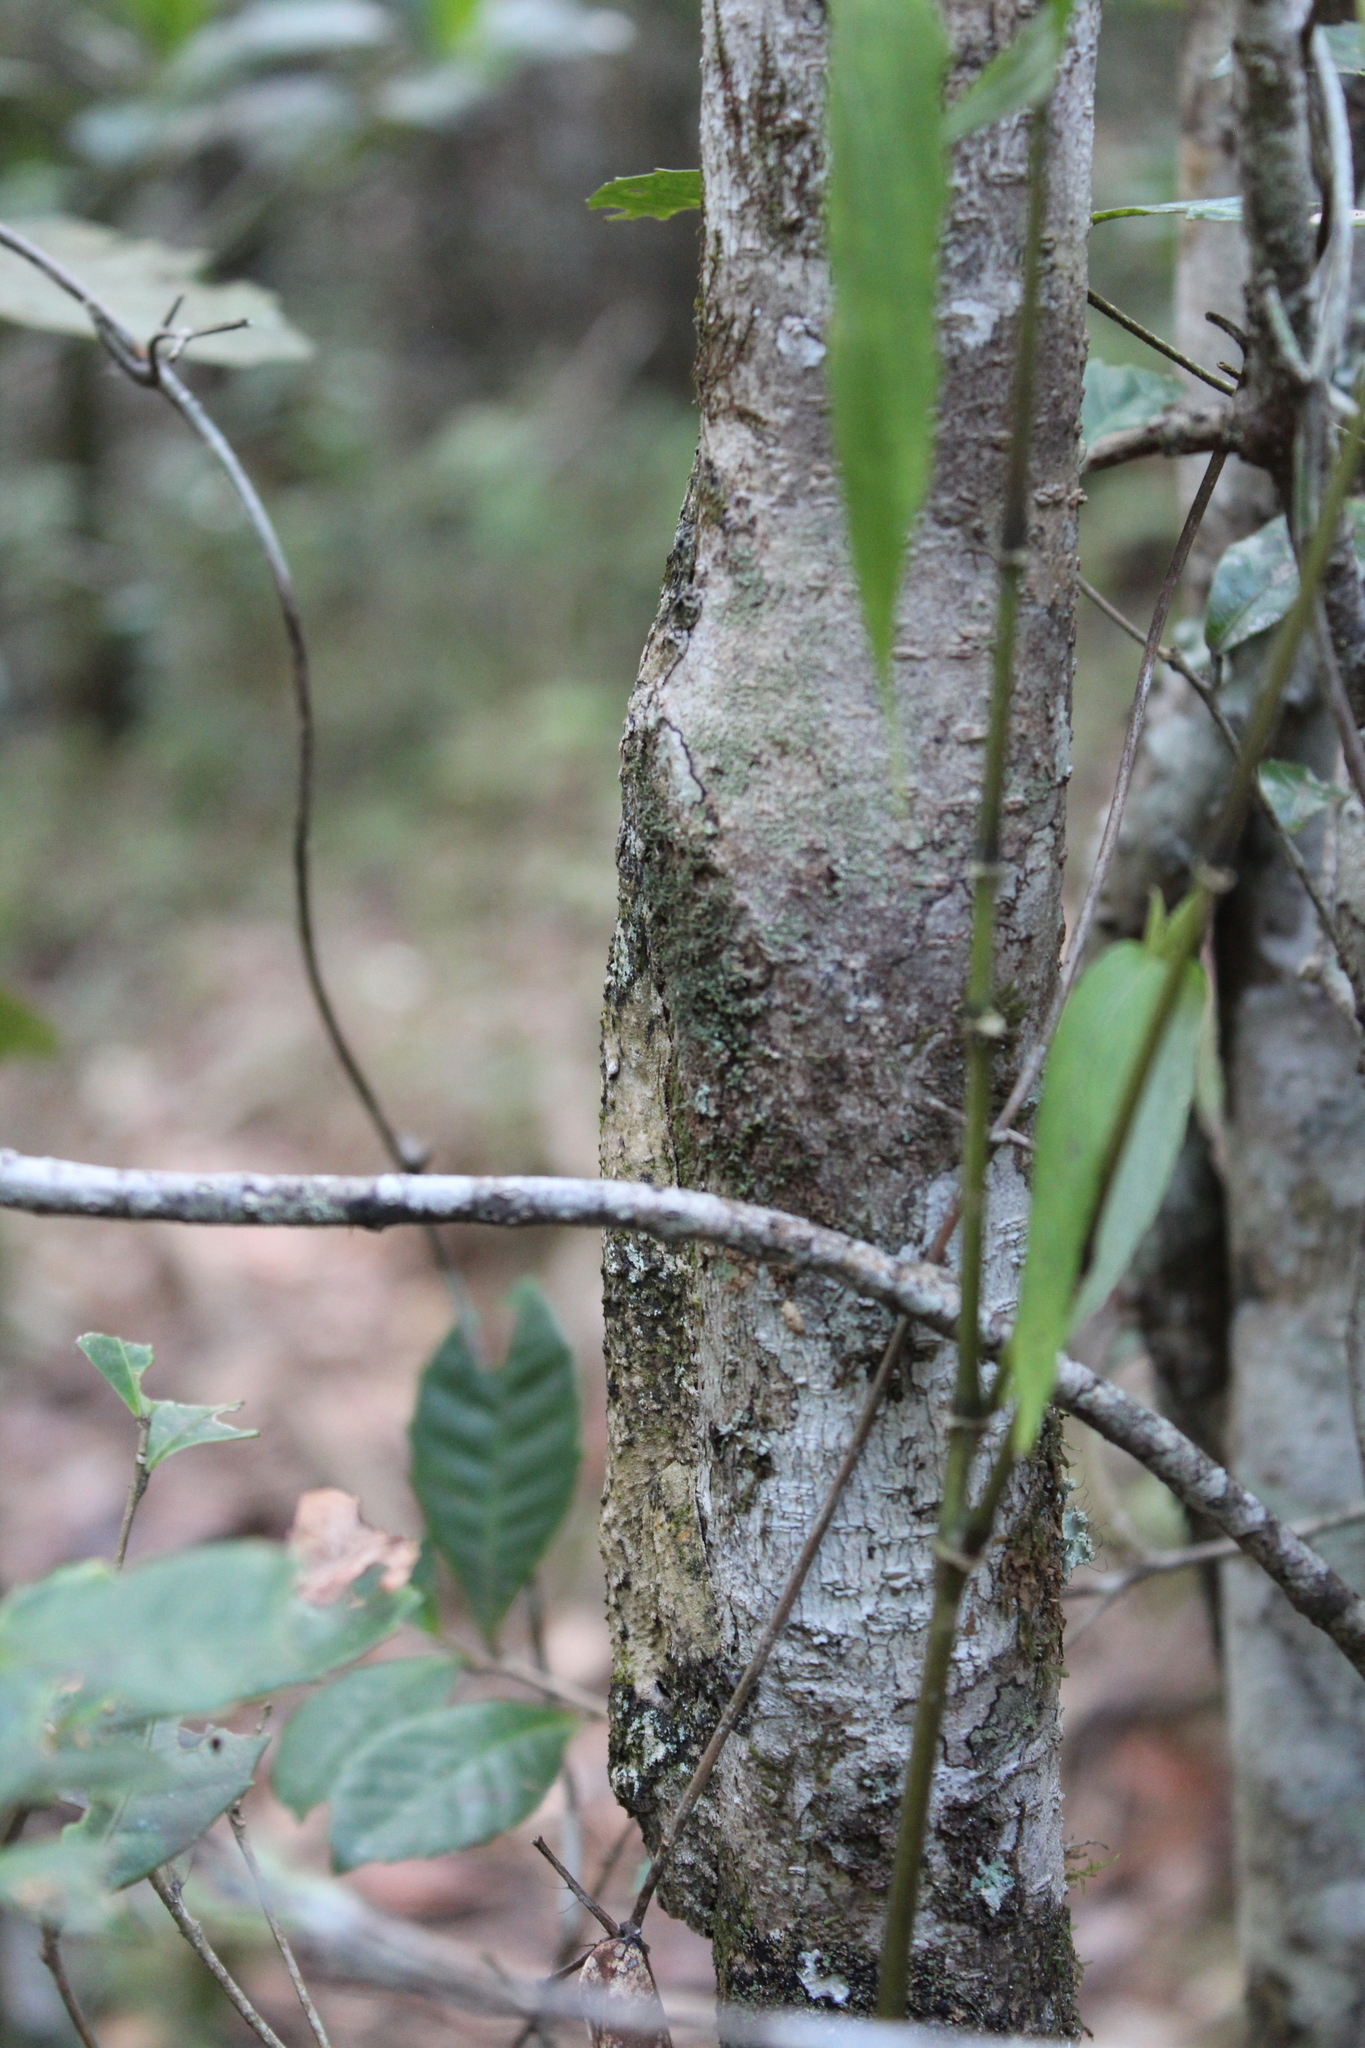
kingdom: Animalia
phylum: Chordata
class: Squamata
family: Gekkonidae
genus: Uroplatus
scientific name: Uroplatus sikorae
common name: Southern flat-tail gecko
